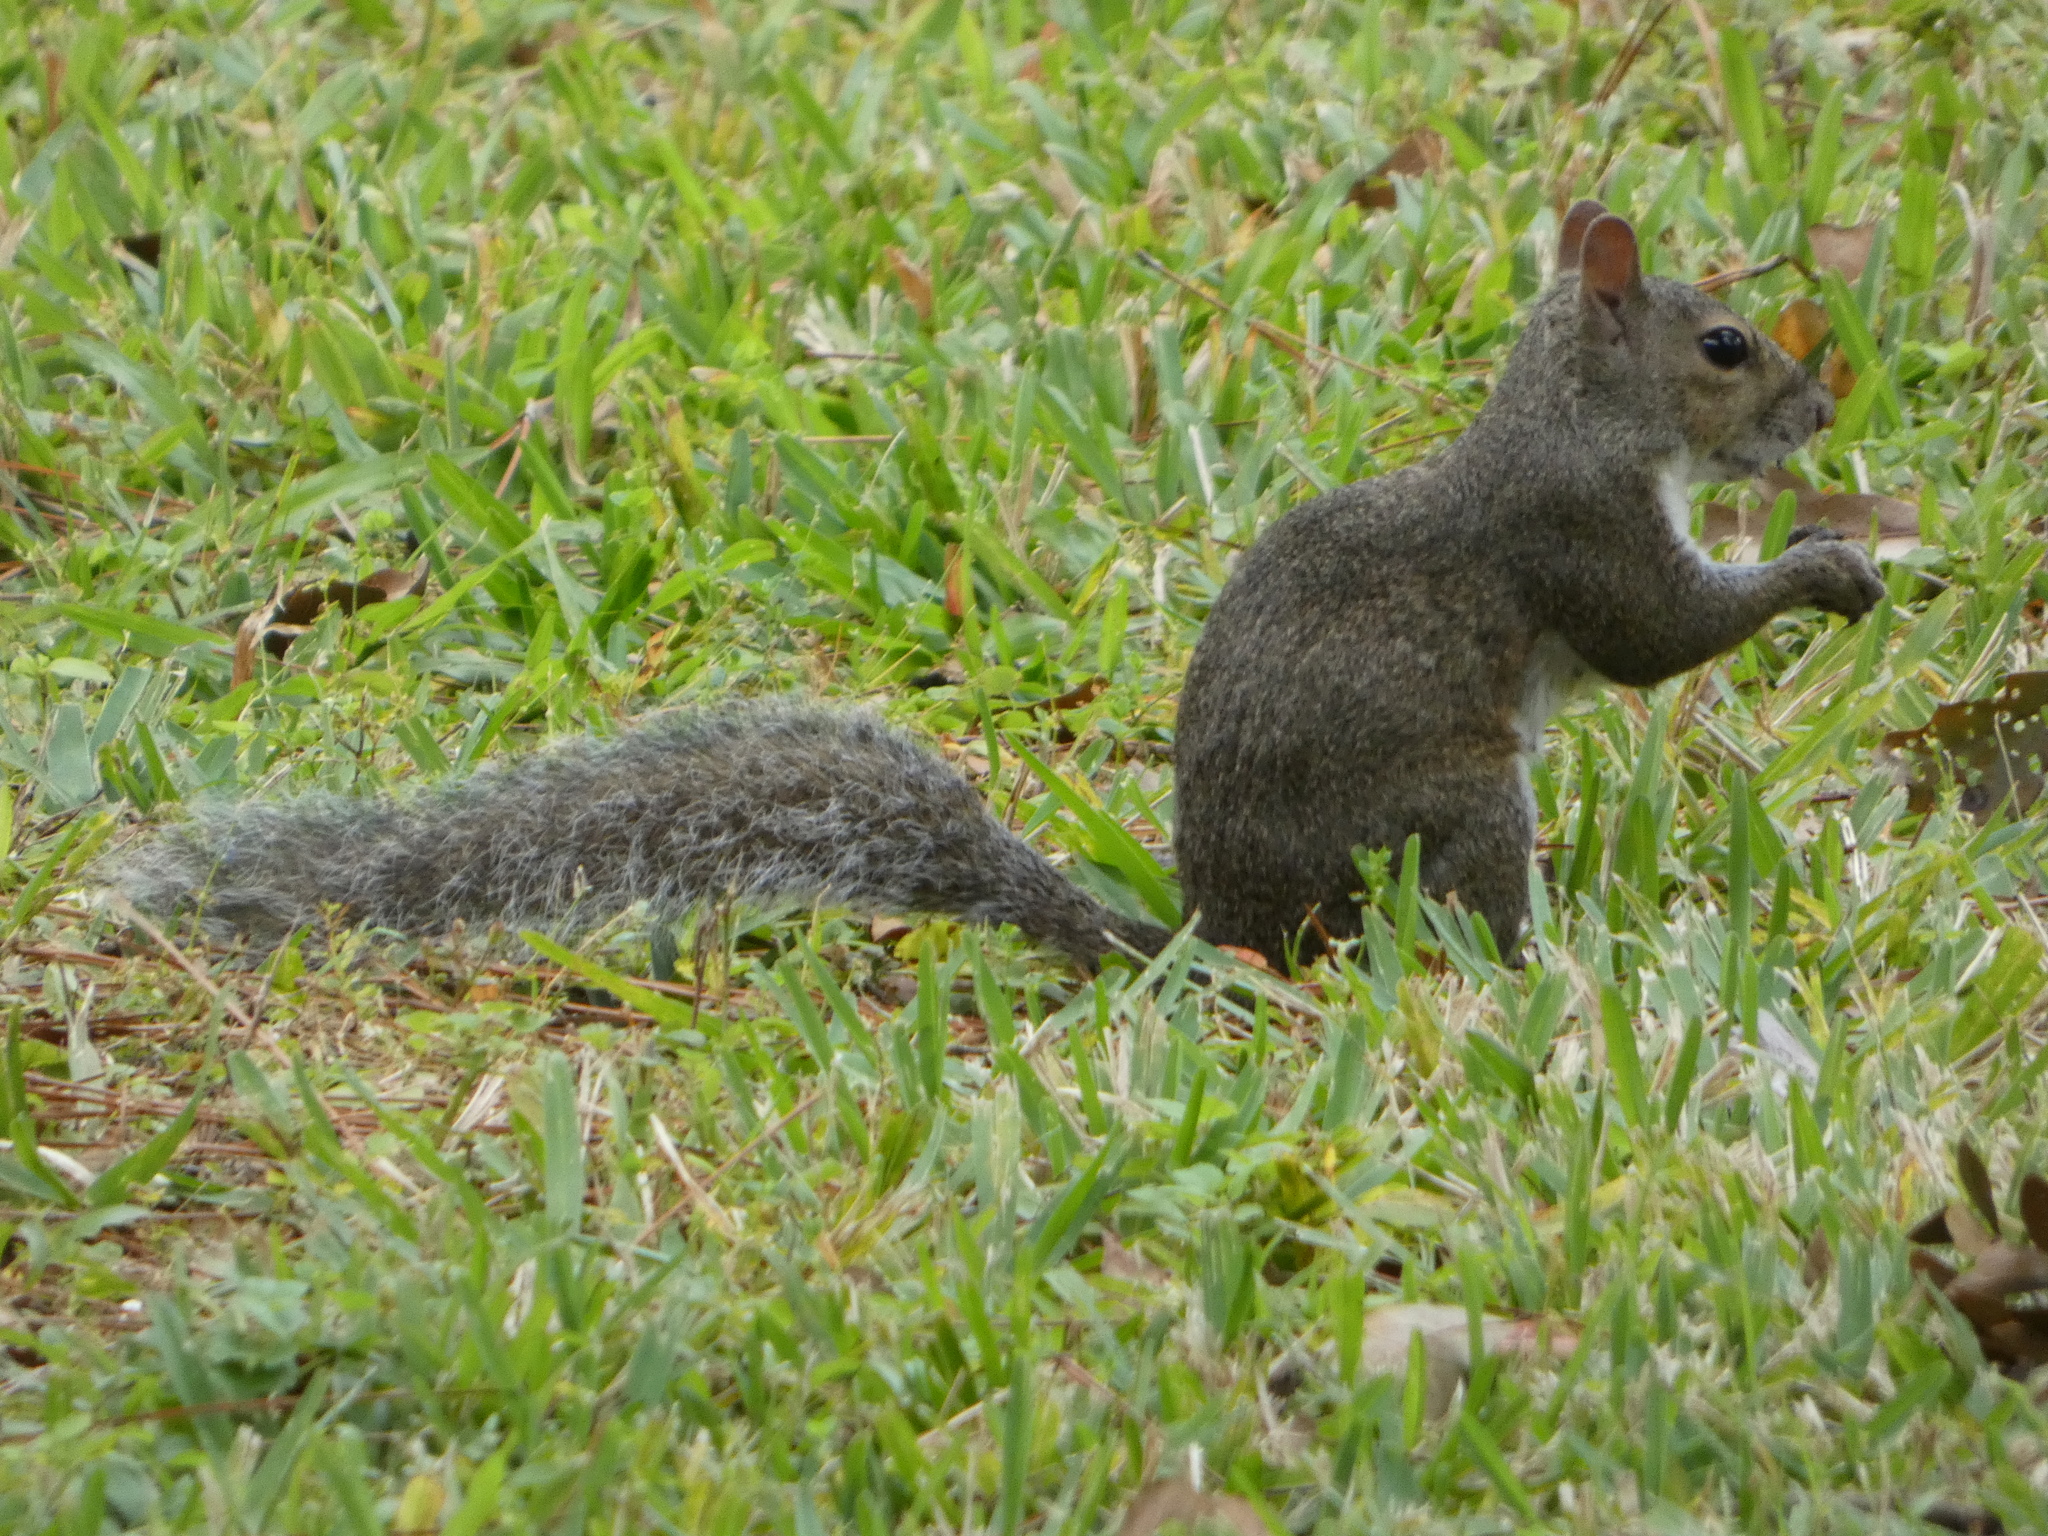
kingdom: Animalia
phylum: Chordata
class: Mammalia
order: Rodentia
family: Sciuridae
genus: Sciurus
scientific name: Sciurus carolinensis
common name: Eastern gray squirrel
